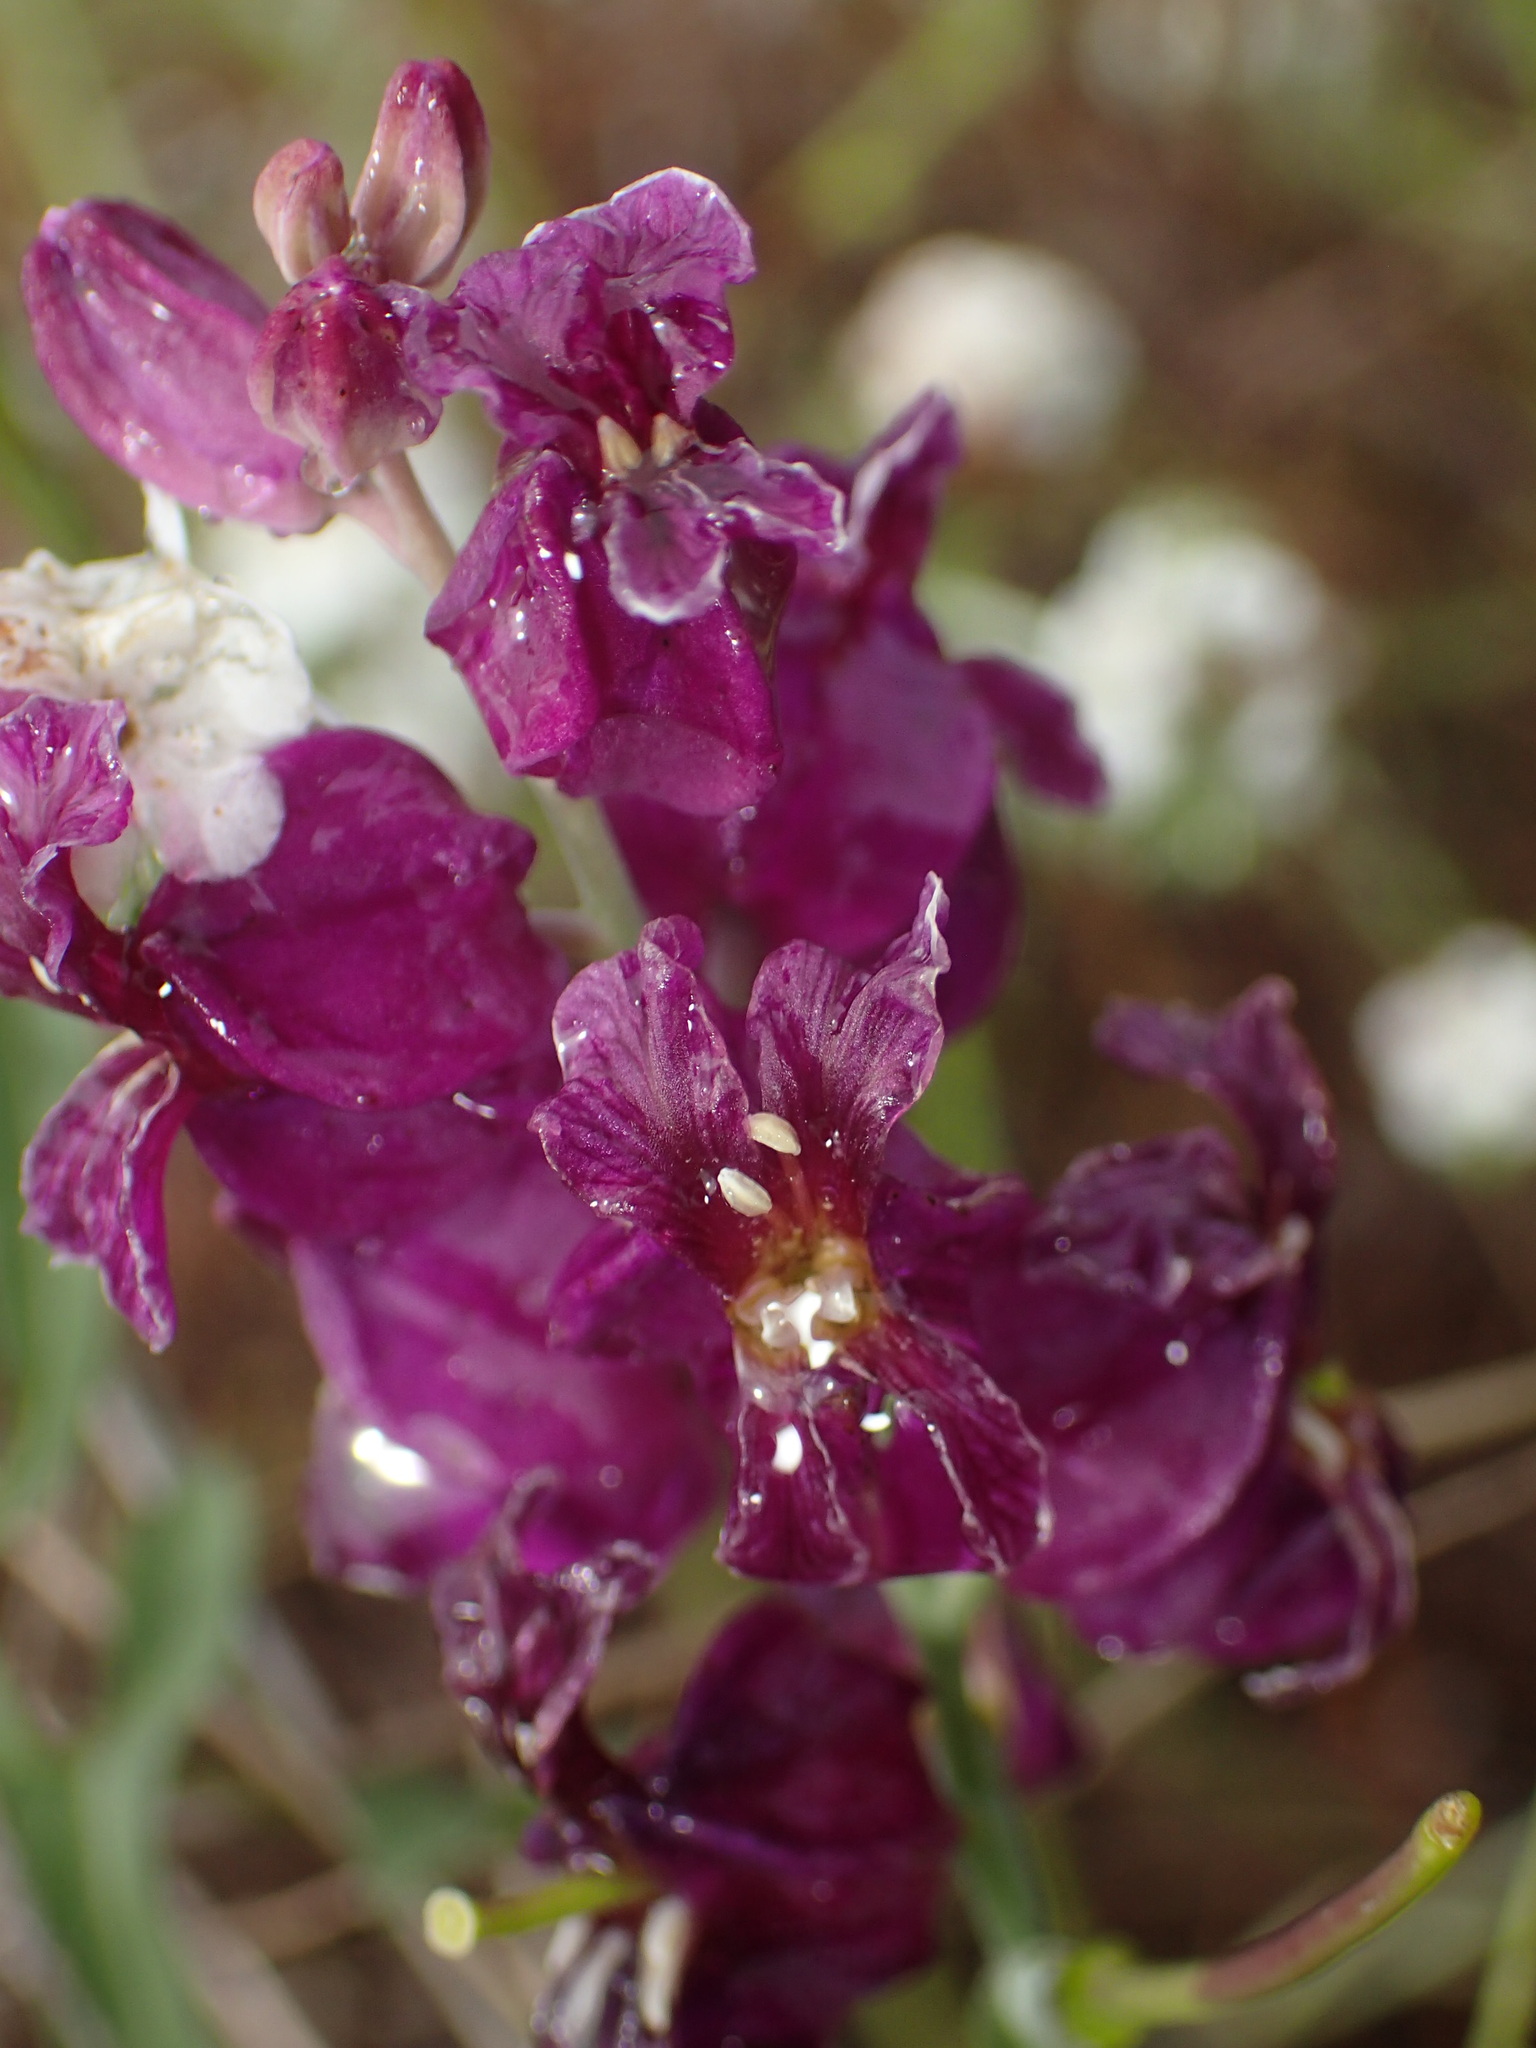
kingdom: Plantae
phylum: Tracheophyta
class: Magnoliopsida
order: Brassicales
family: Brassicaceae
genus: Streptanthus
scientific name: Streptanthus glandulosus
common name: Jewel-flower
